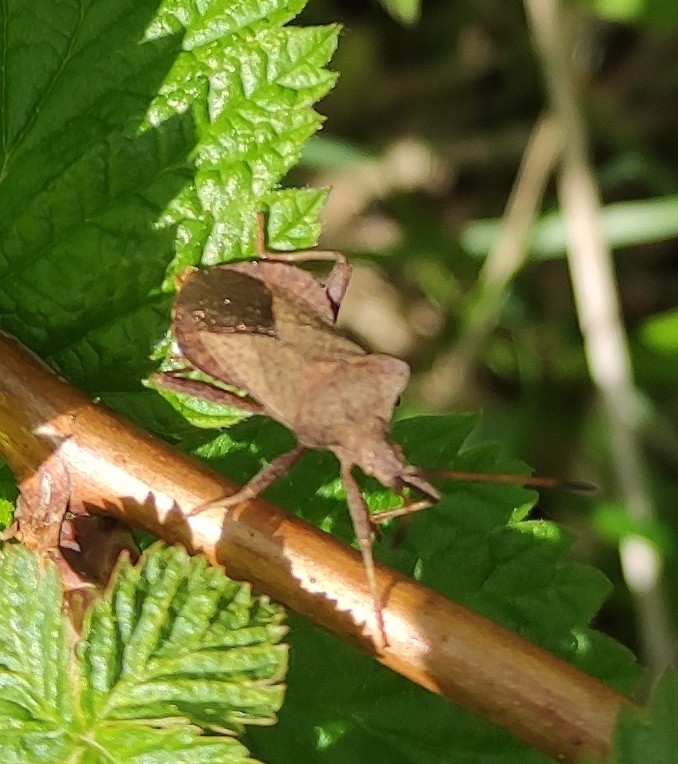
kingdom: Animalia
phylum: Arthropoda
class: Insecta
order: Hemiptera
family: Coreidae
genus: Coreus
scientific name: Coreus marginatus
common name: Dock bug
